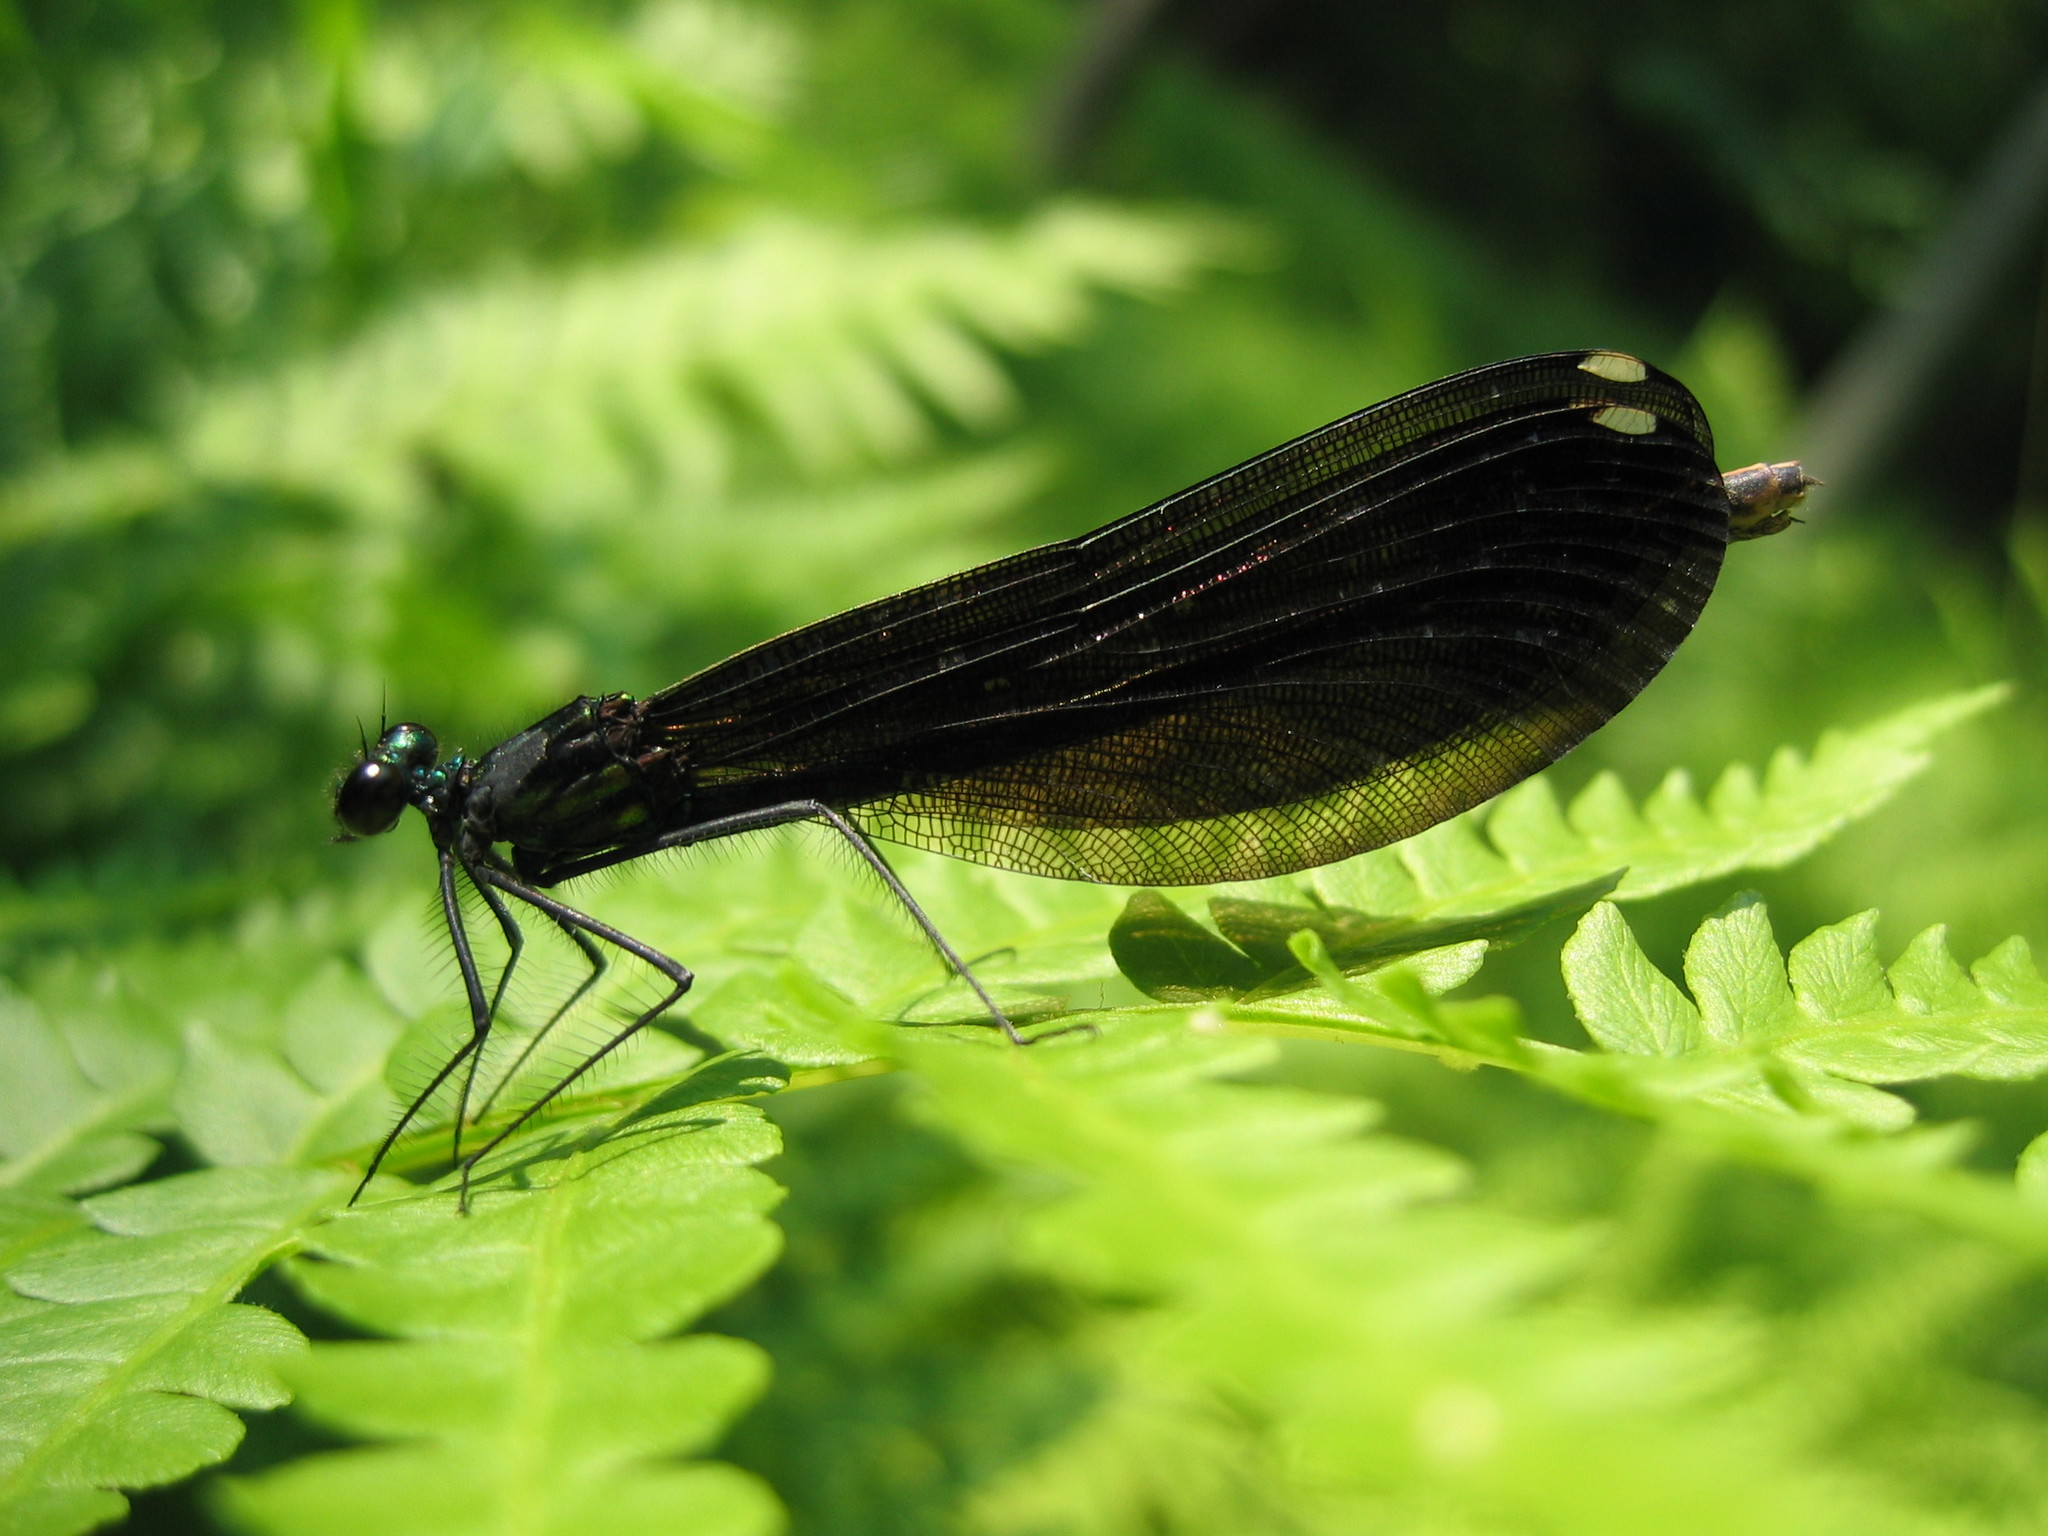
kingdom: Animalia
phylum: Arthropoda
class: Insecta
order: Odonata
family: Calopterygidae
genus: Calopteryx
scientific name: Calopteryx maculata
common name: Ebony jewelwing
